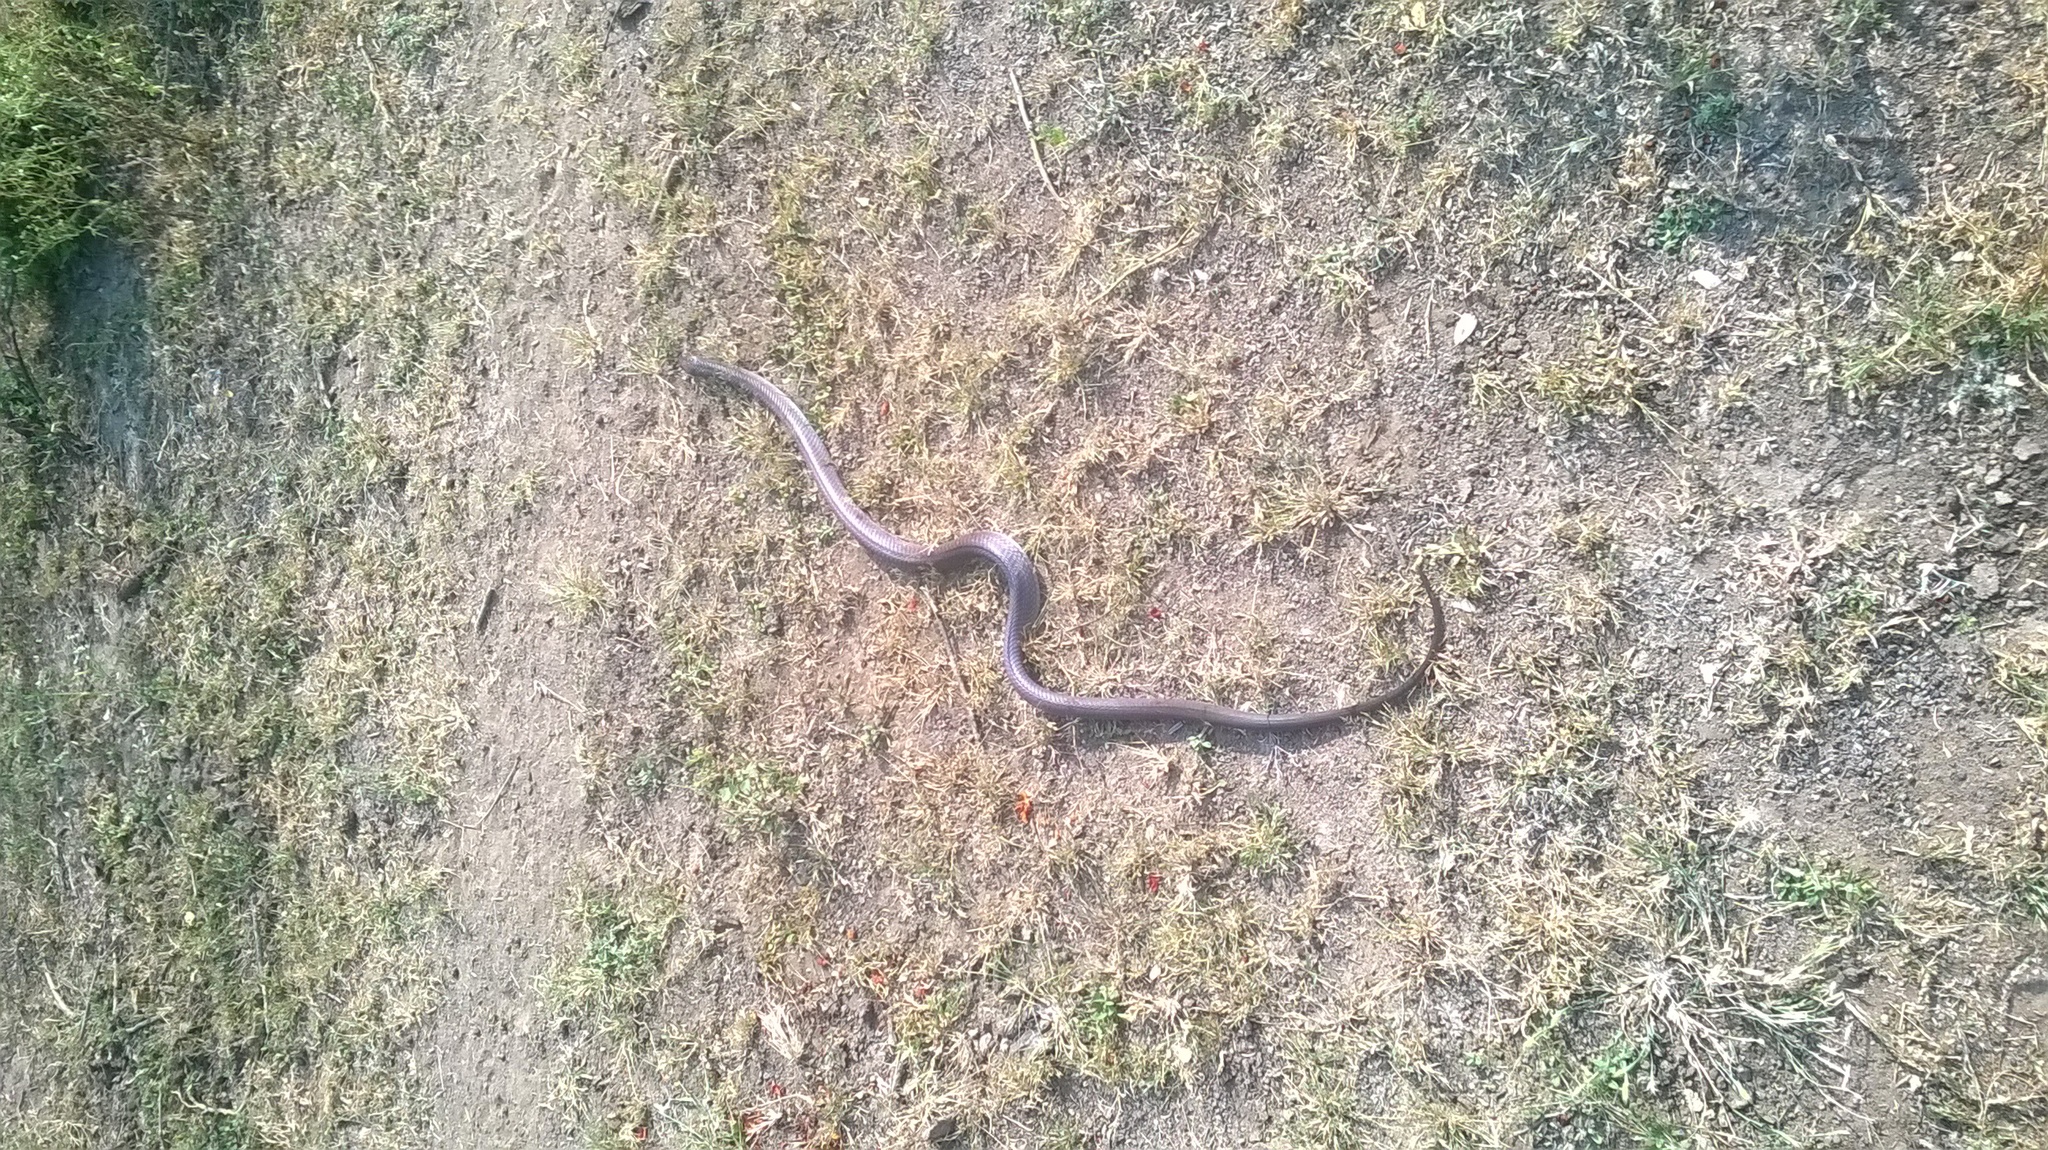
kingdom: Animalia
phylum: Chordata
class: Squamata
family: Elapidae
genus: Naja
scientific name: Naja naja
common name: Indian cobra
